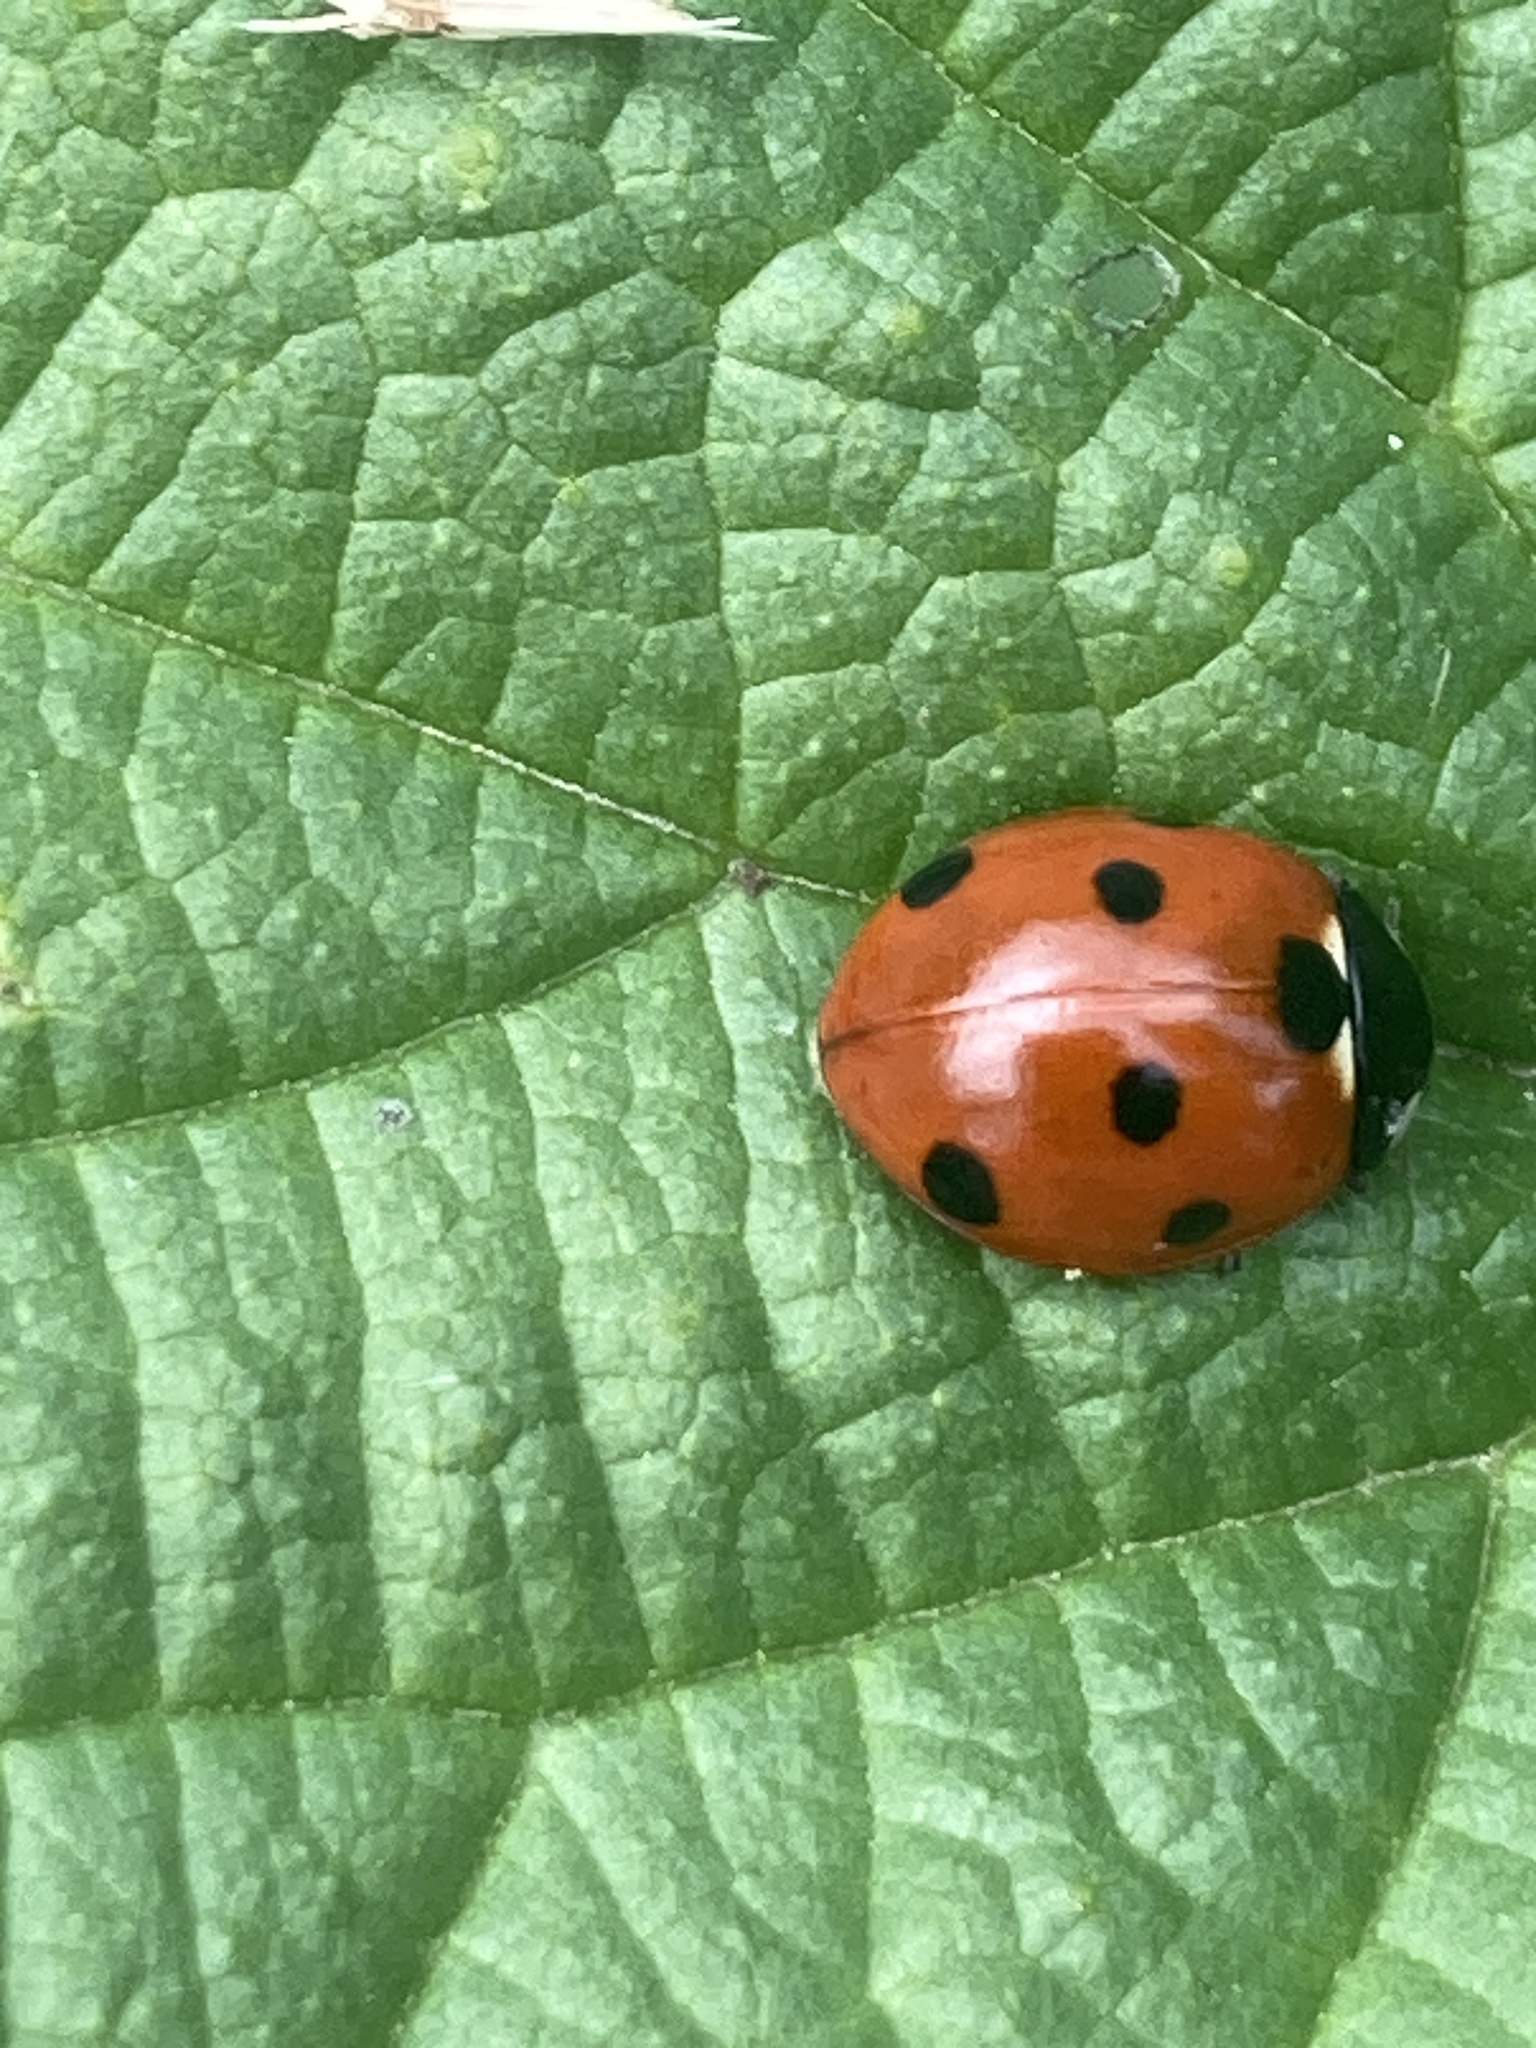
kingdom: Animalia
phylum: Arthropoda
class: Insecta
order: Coleoptera
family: Coccinellidae
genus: Coccinella
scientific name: Coccinella septempunctata
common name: Sevenspotted lady beetle
